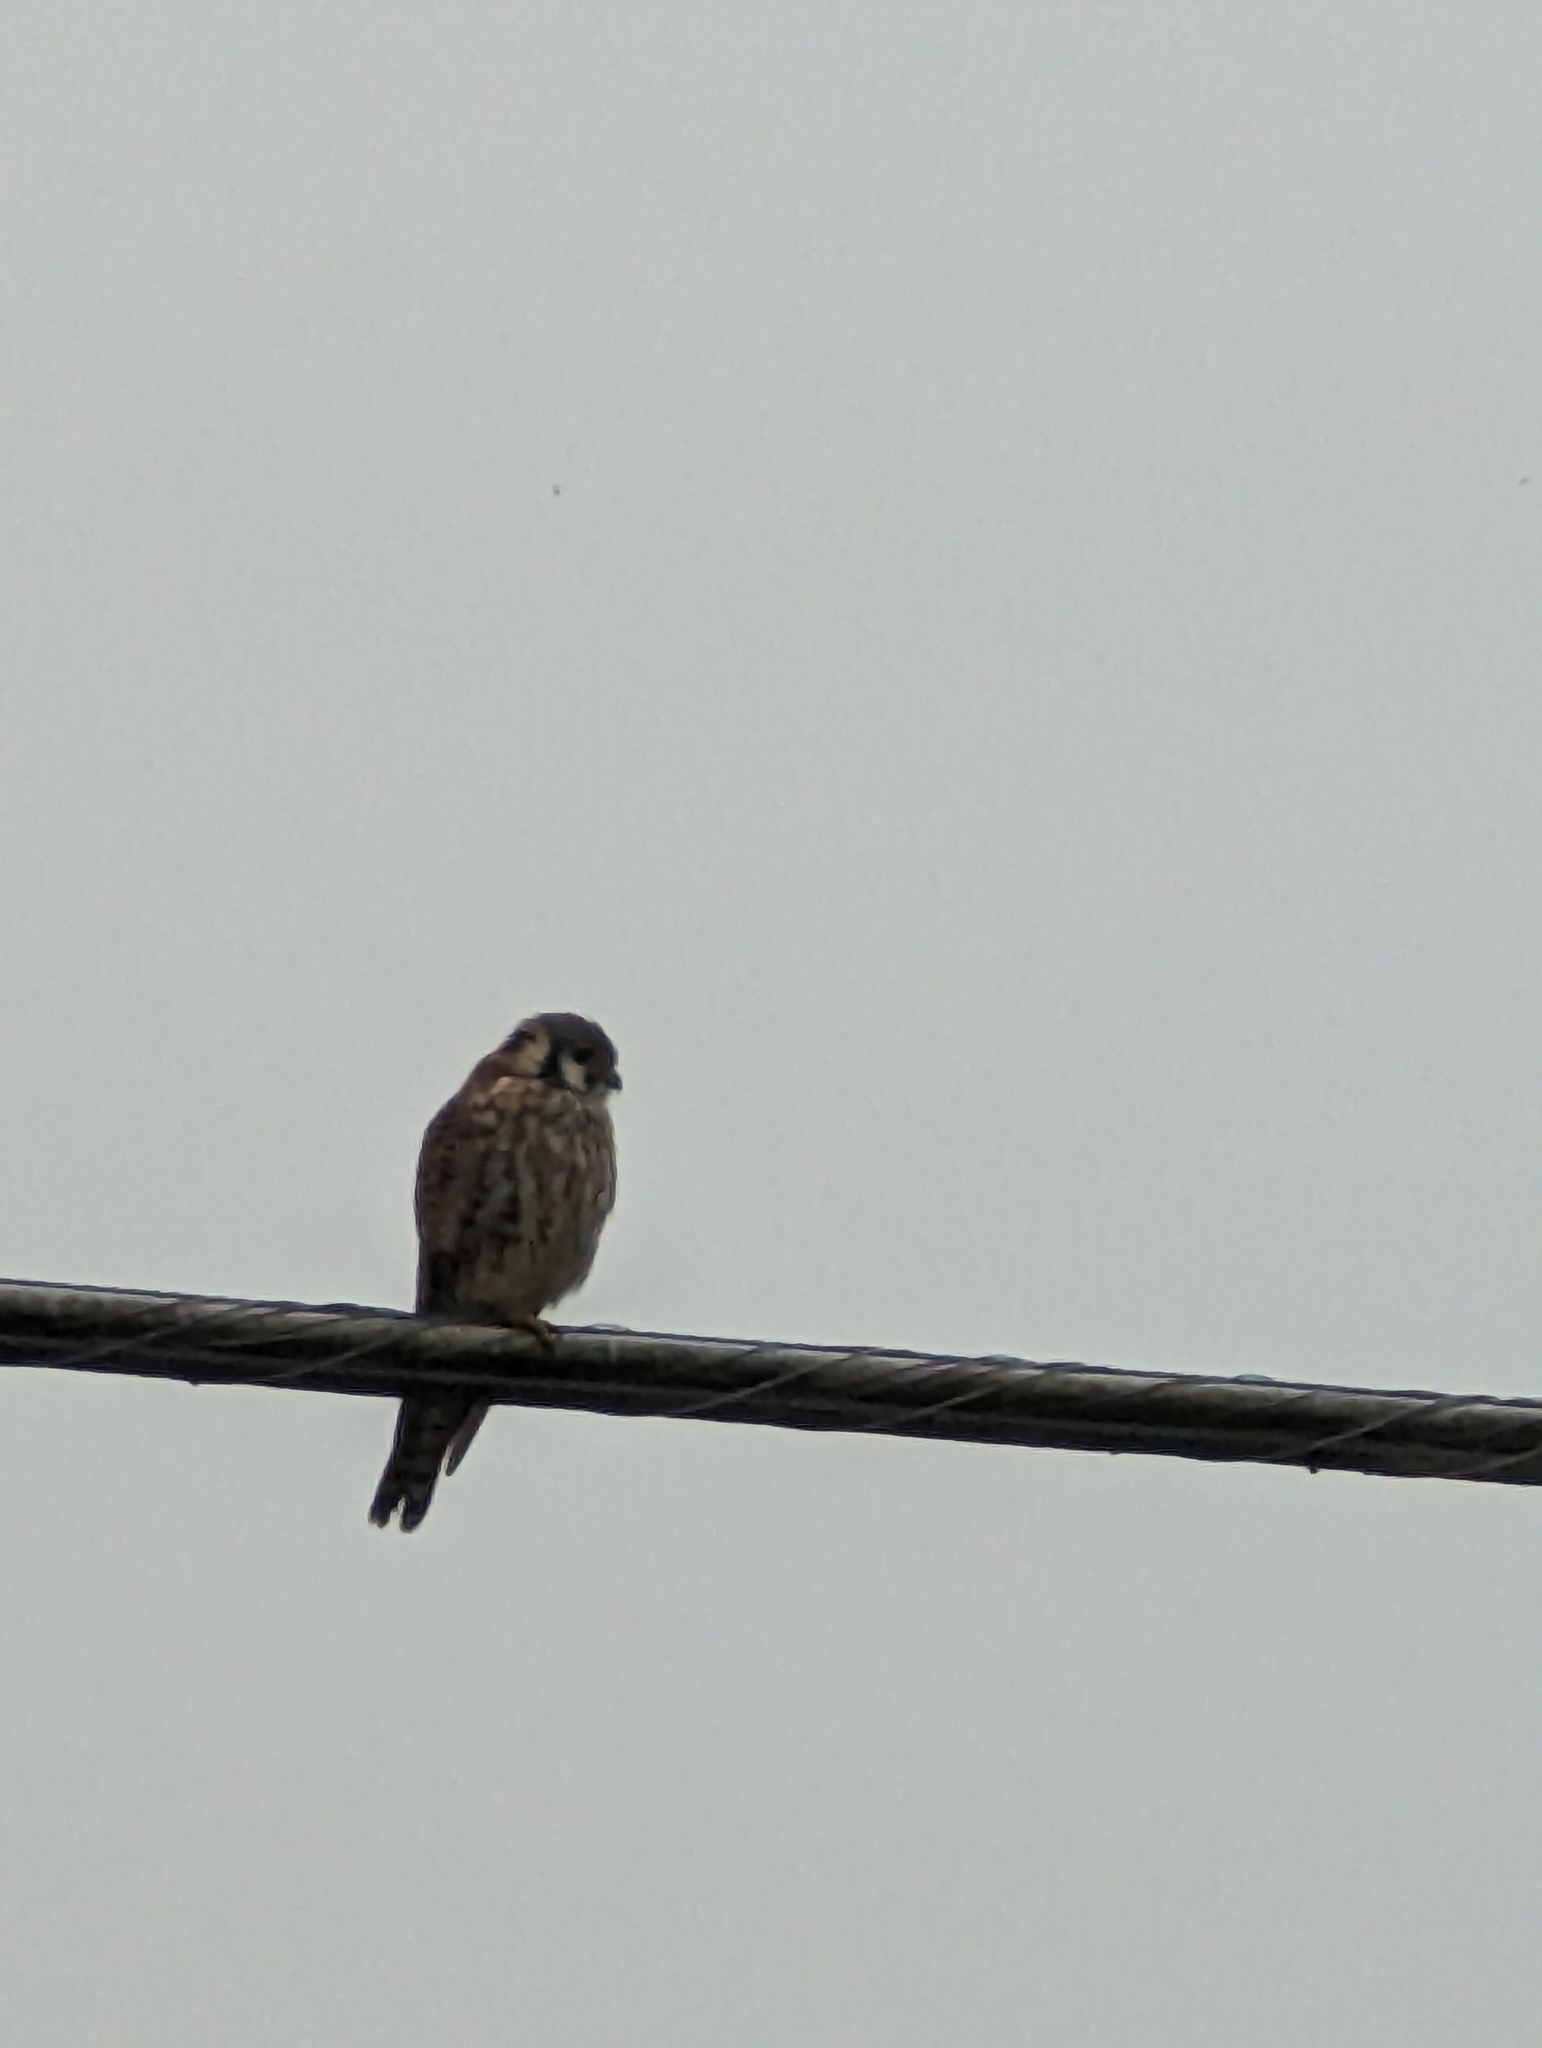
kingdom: Animalia
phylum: Chordata
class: Aves
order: Falconiformes
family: Falconidae
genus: Falco
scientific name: Falco sparverius
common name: American kestrel
